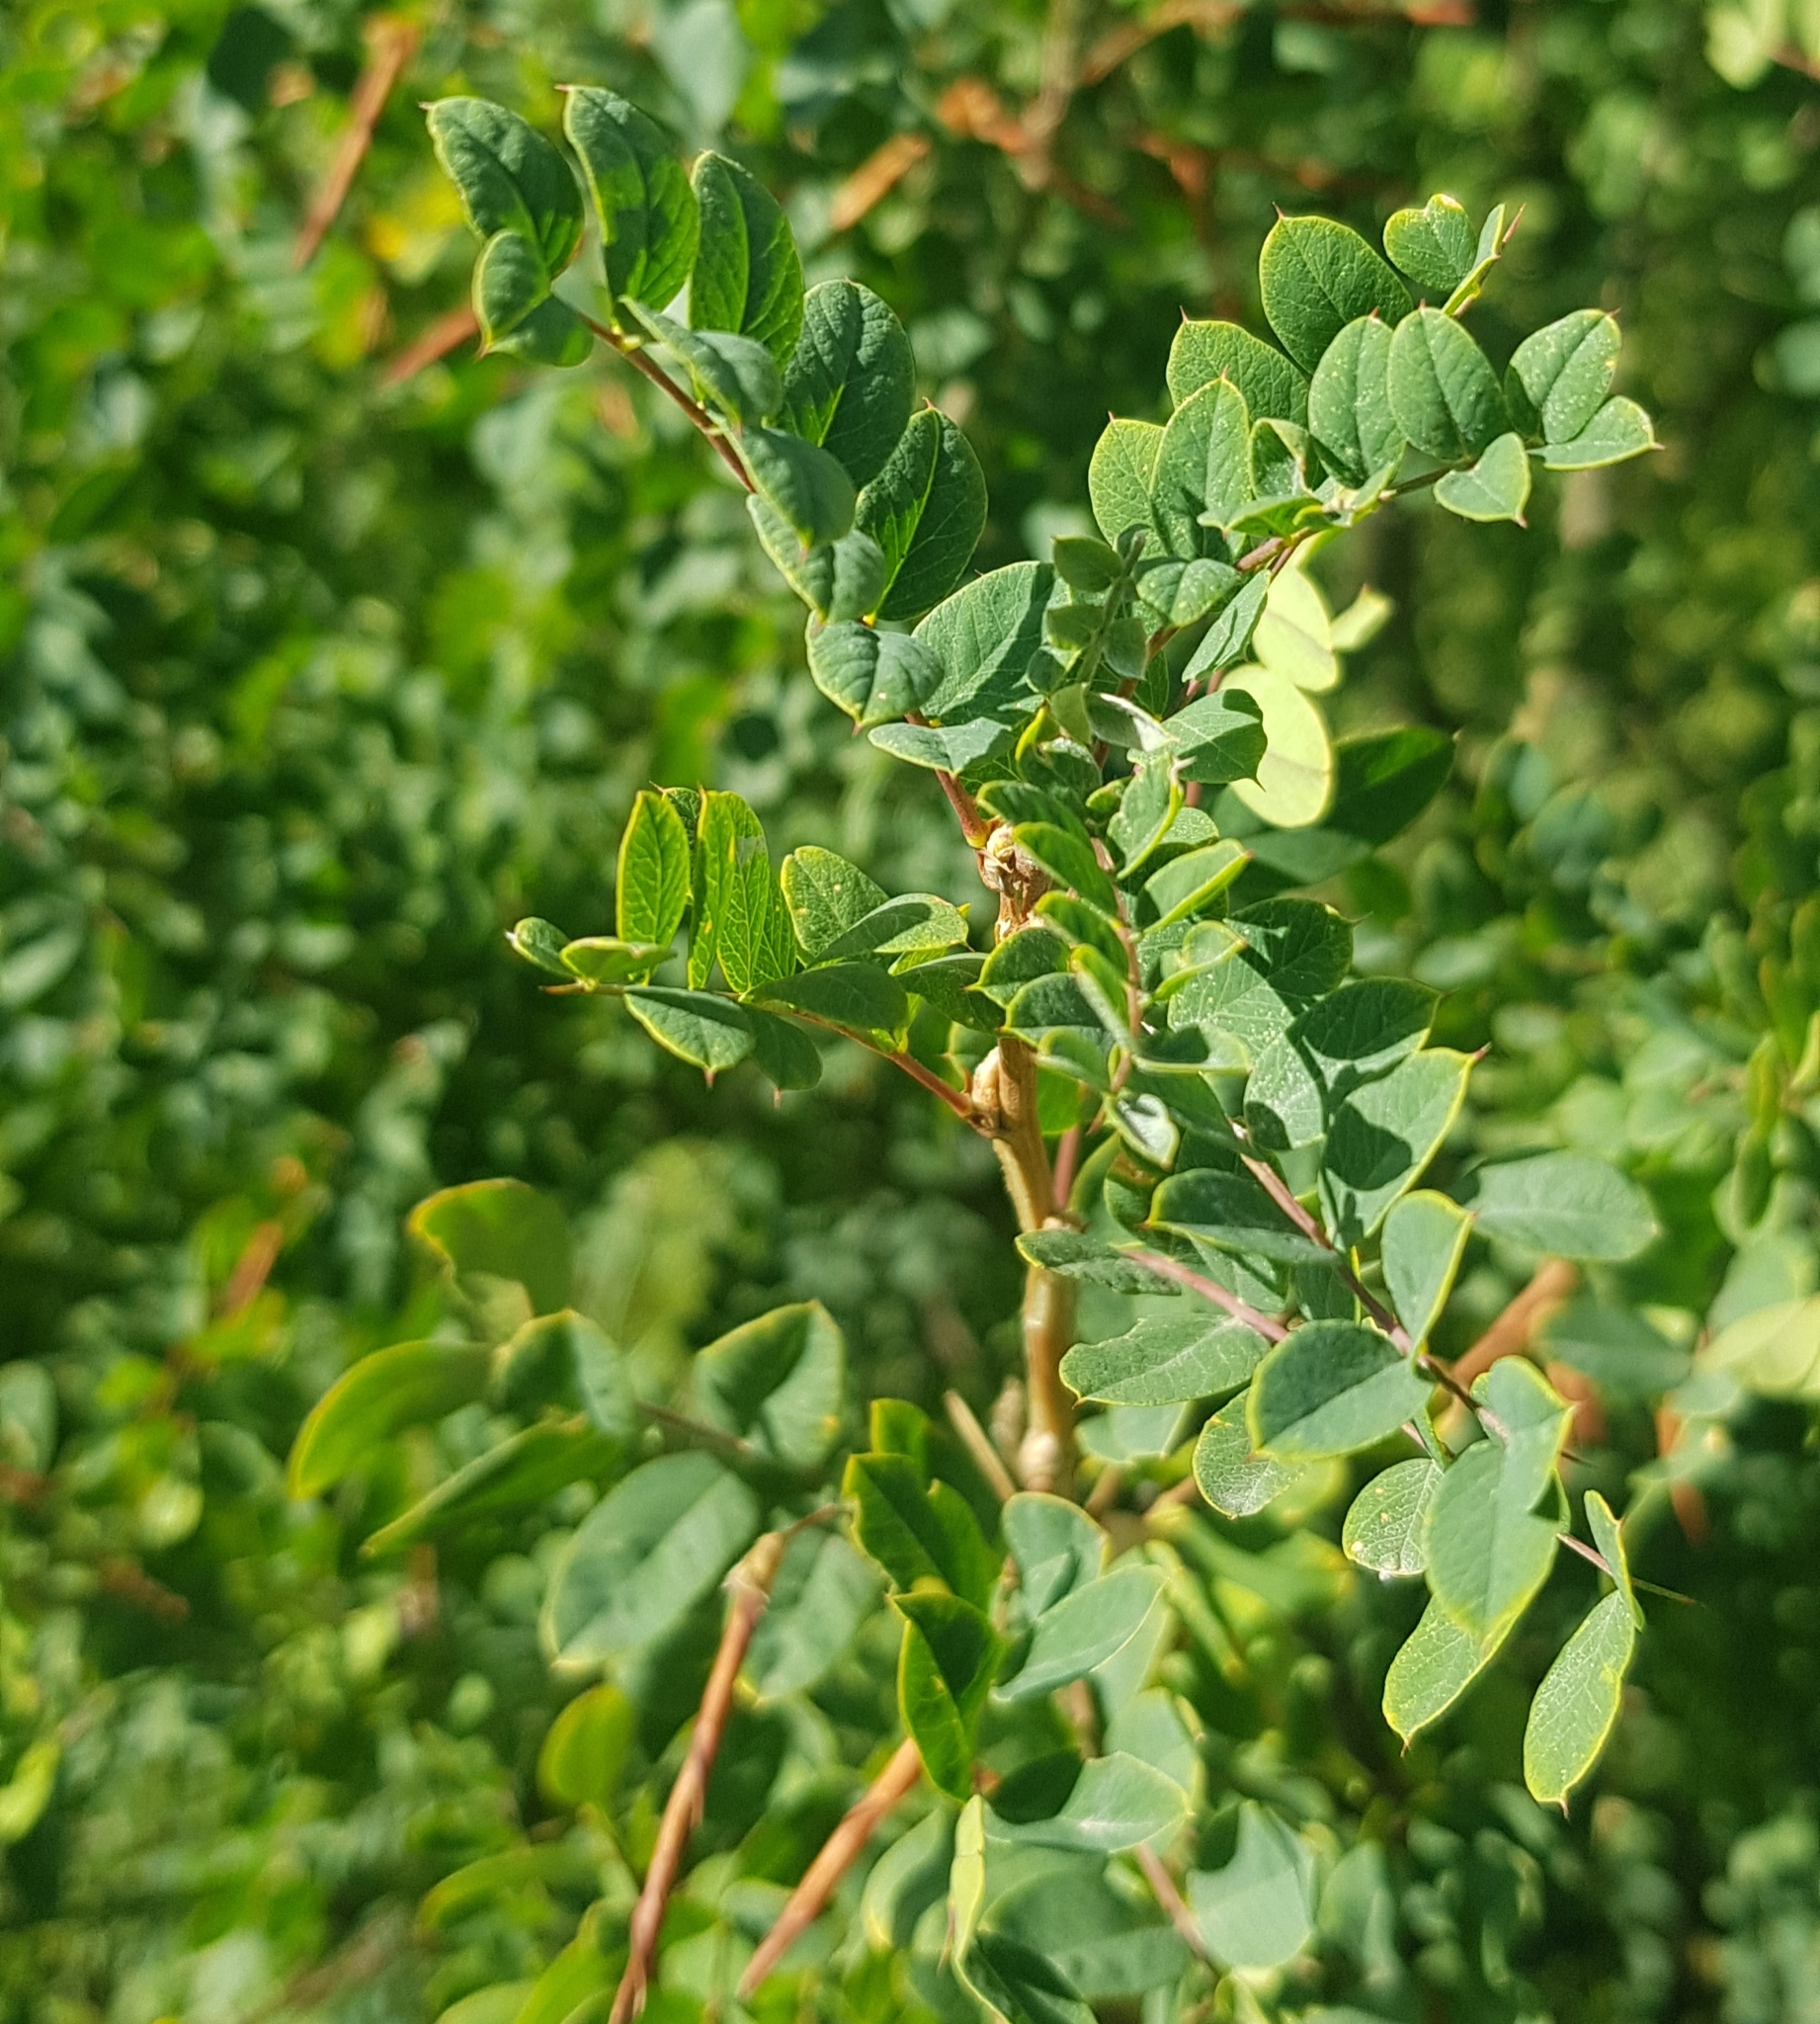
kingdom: Plantae
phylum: Tracheophyta
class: Magnoliopsida
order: Fabales
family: Fabaceae
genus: Caragana
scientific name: Caragana arborescens
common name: Siberian peashrub
